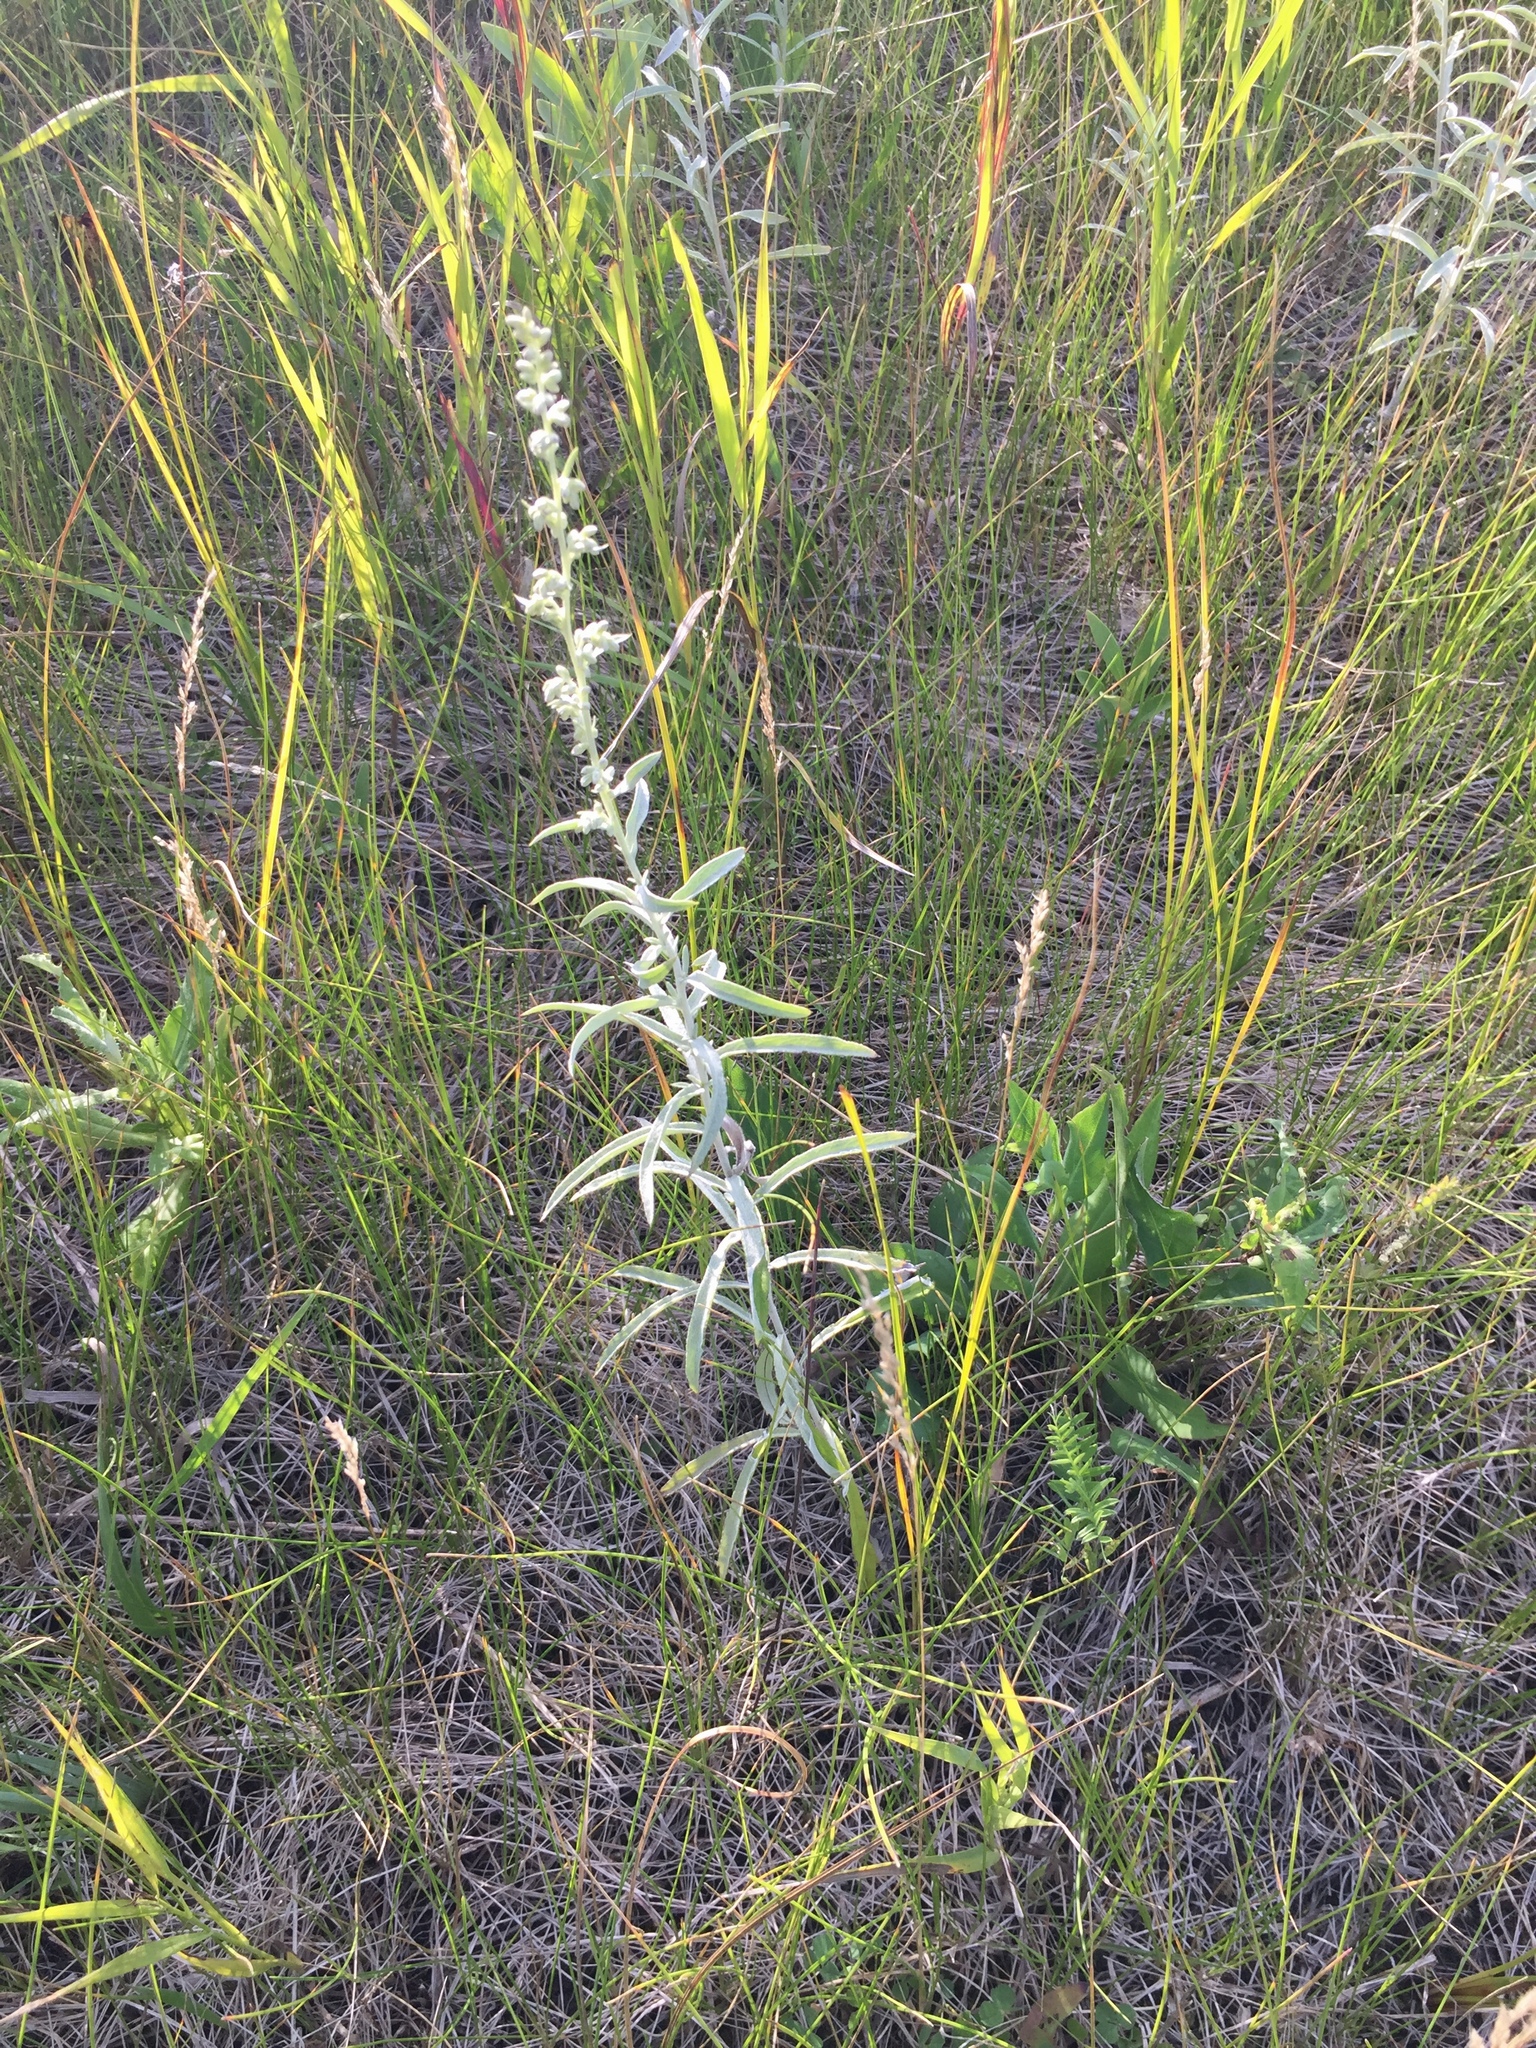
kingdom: Plantae
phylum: Tracheophyta
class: Magnoliopsida
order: Asterales
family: Asteraceae
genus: Artemisia
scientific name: Artemisia ludoviciana
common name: Western mugwort
